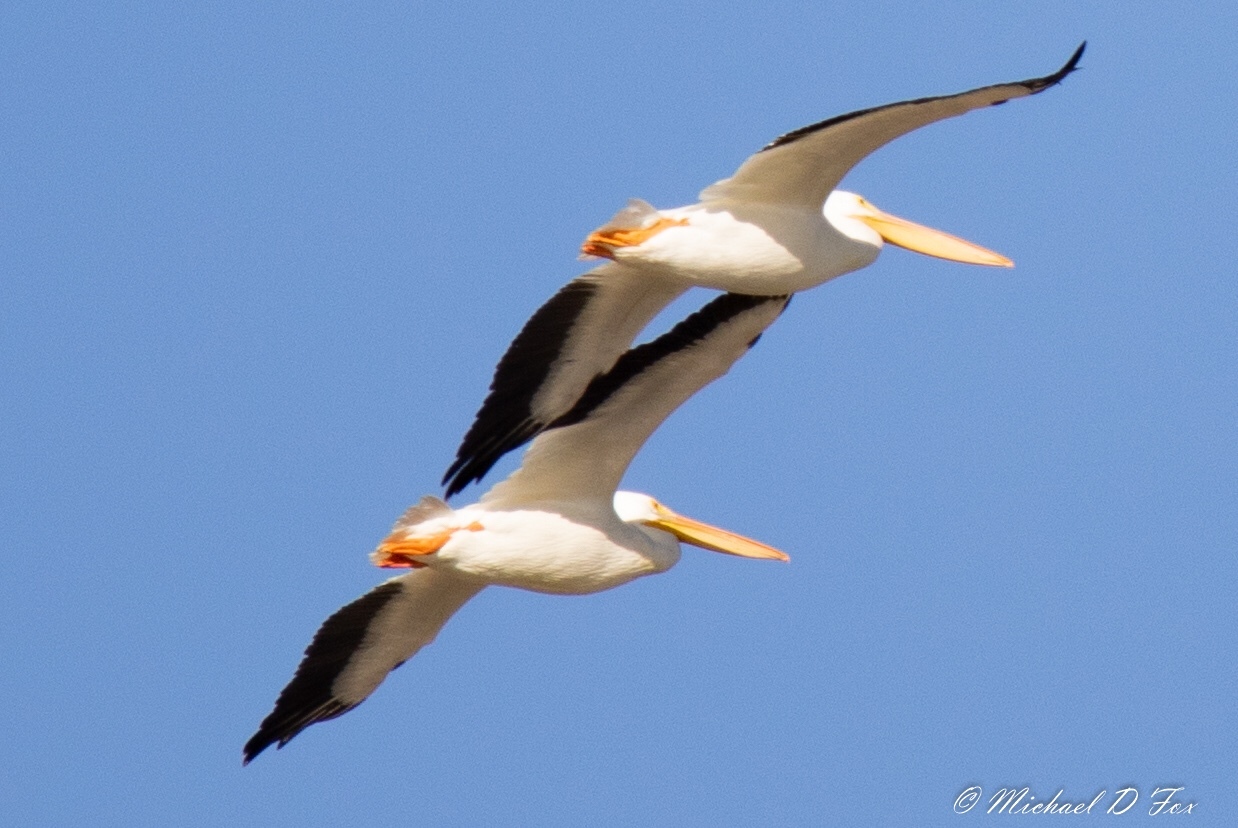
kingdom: Animalia
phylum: Chordata
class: Aves
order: Pelecaniformes
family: Pelecanidae
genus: Pelecanus
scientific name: Pelecanus erythrorhynchos
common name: American white pelican
